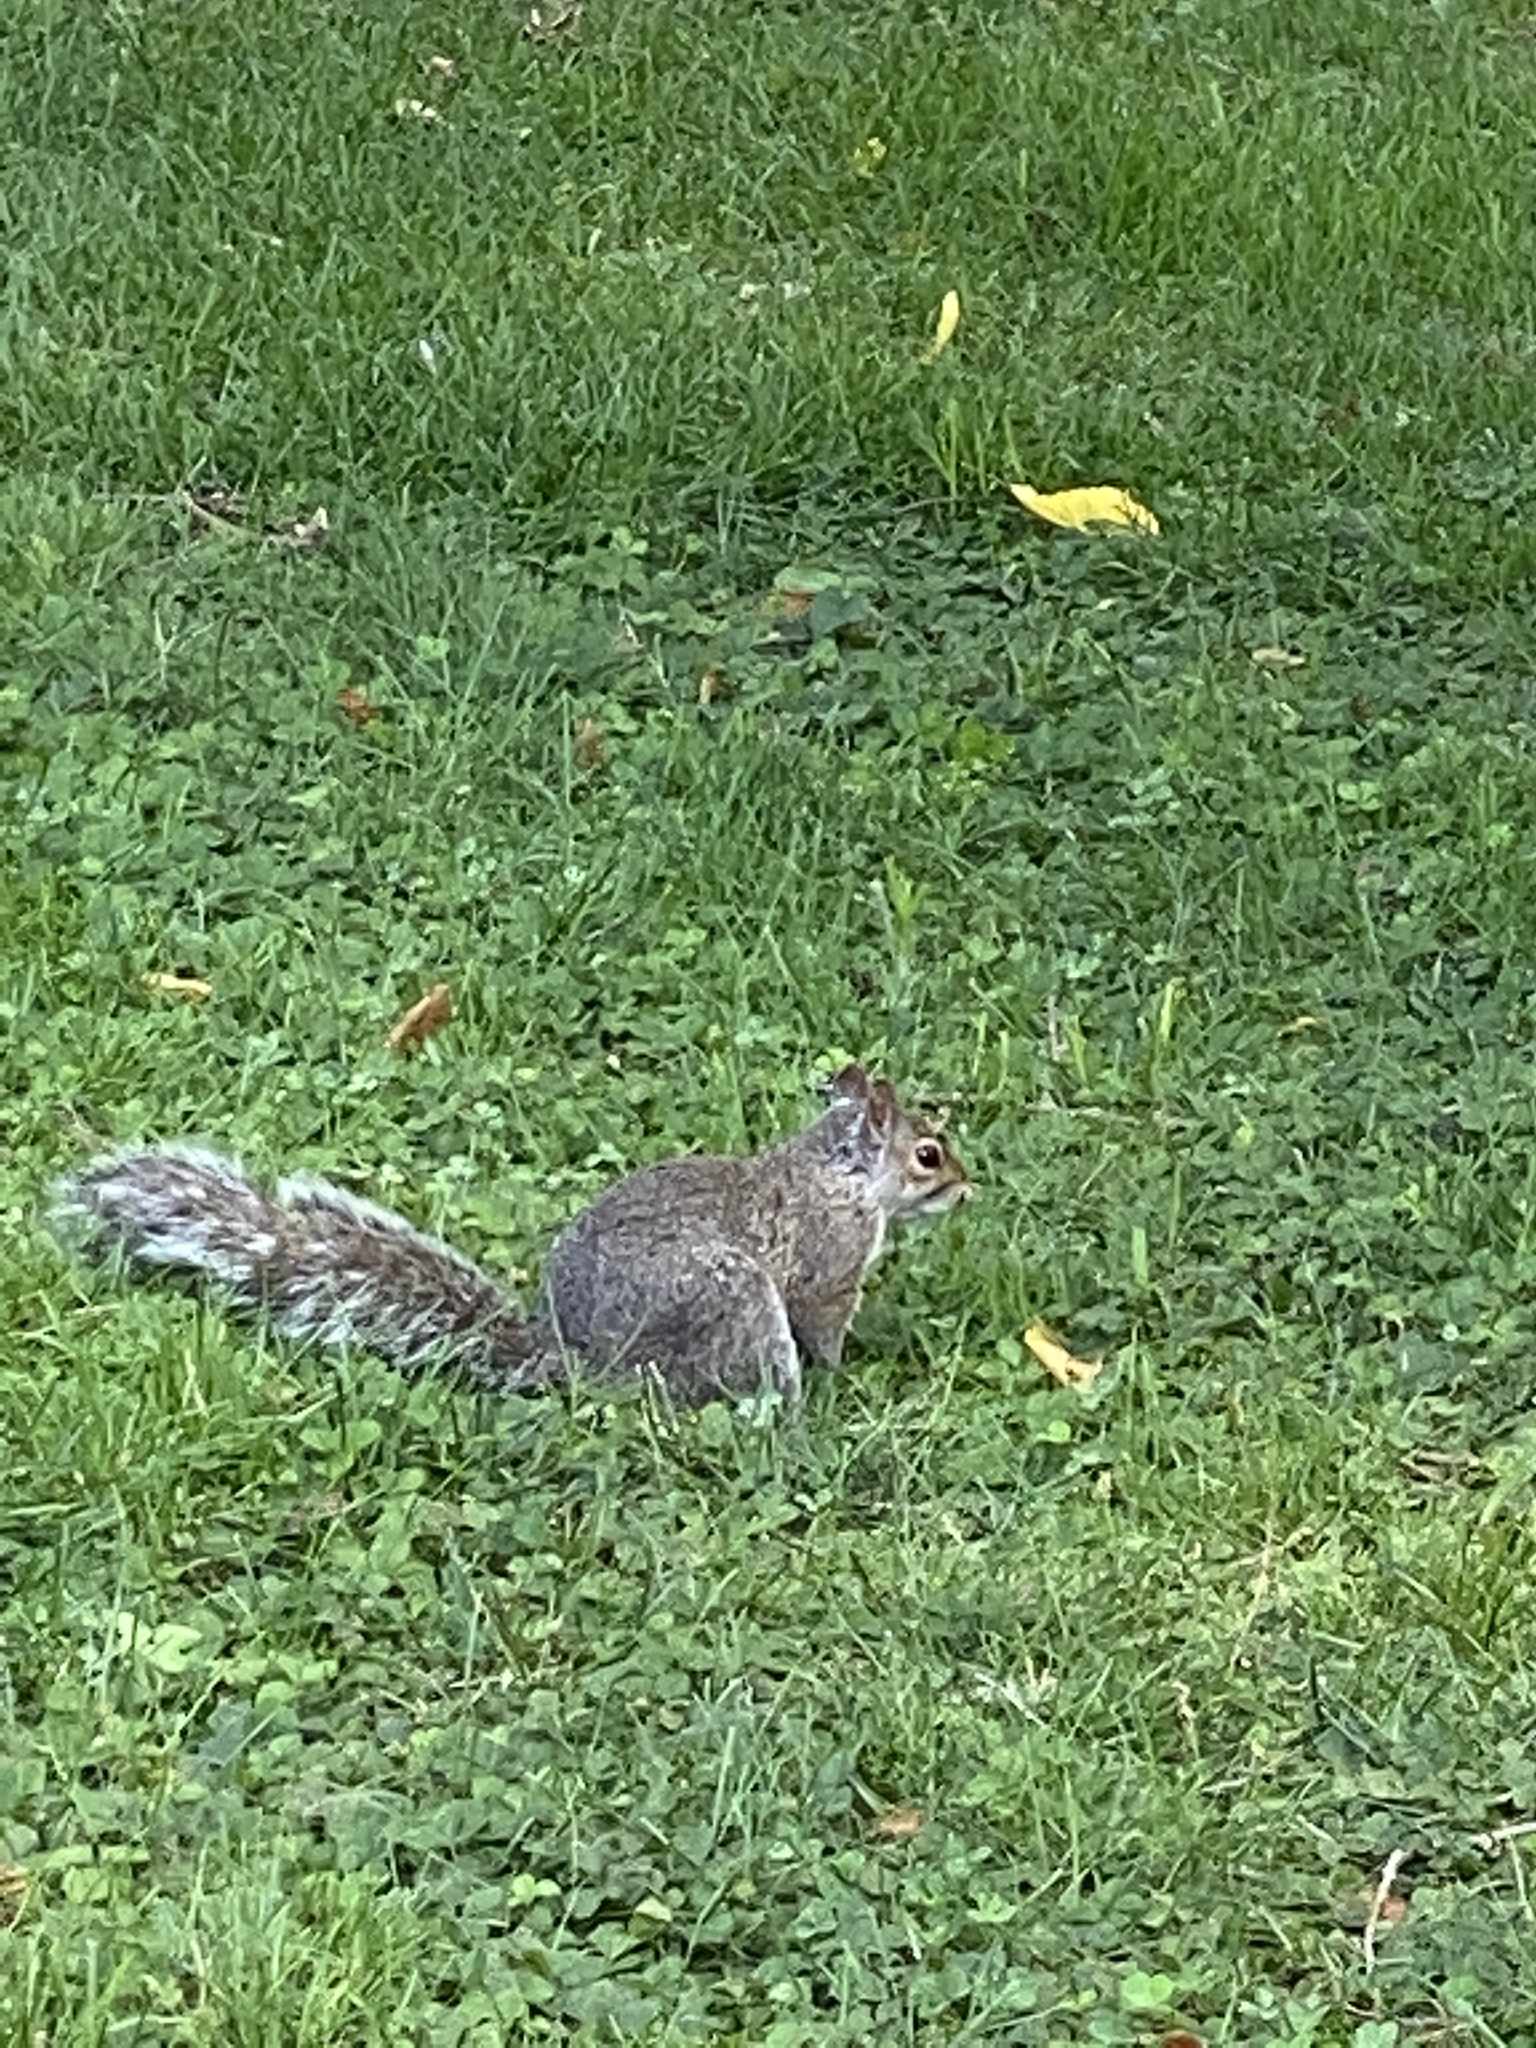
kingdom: Animalia
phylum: Chordata
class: Mammalia
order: Rodentia
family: Sciuridae
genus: Sciurus
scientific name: Sciurus carolinensis
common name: Eastern gray squirrel
